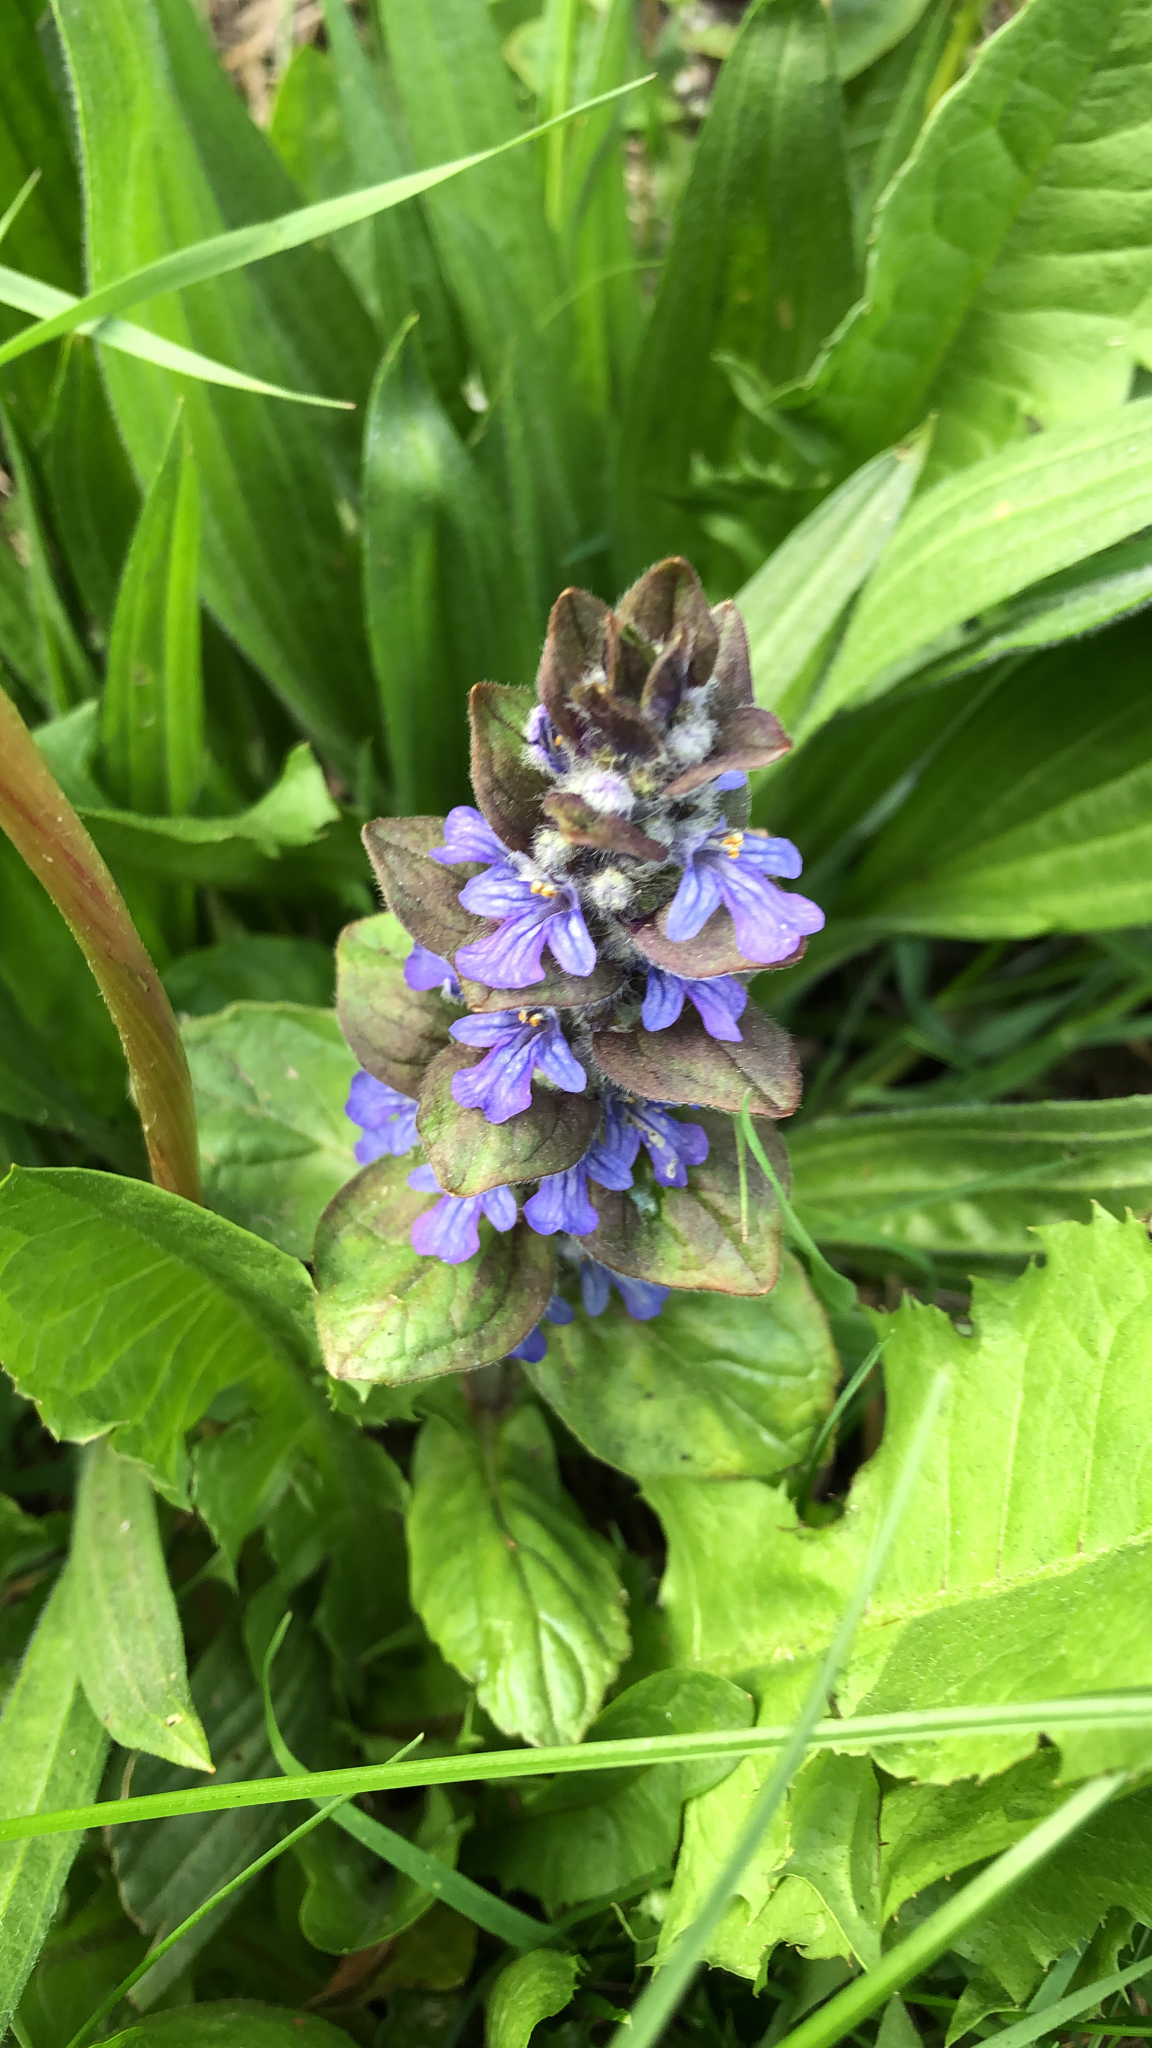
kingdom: Plantae
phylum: Tracheophyta
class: Magnoliopsida
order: Lamiales
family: Lamiaceae
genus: Ajuga
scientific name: Ajuga reptans
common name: Bugle
